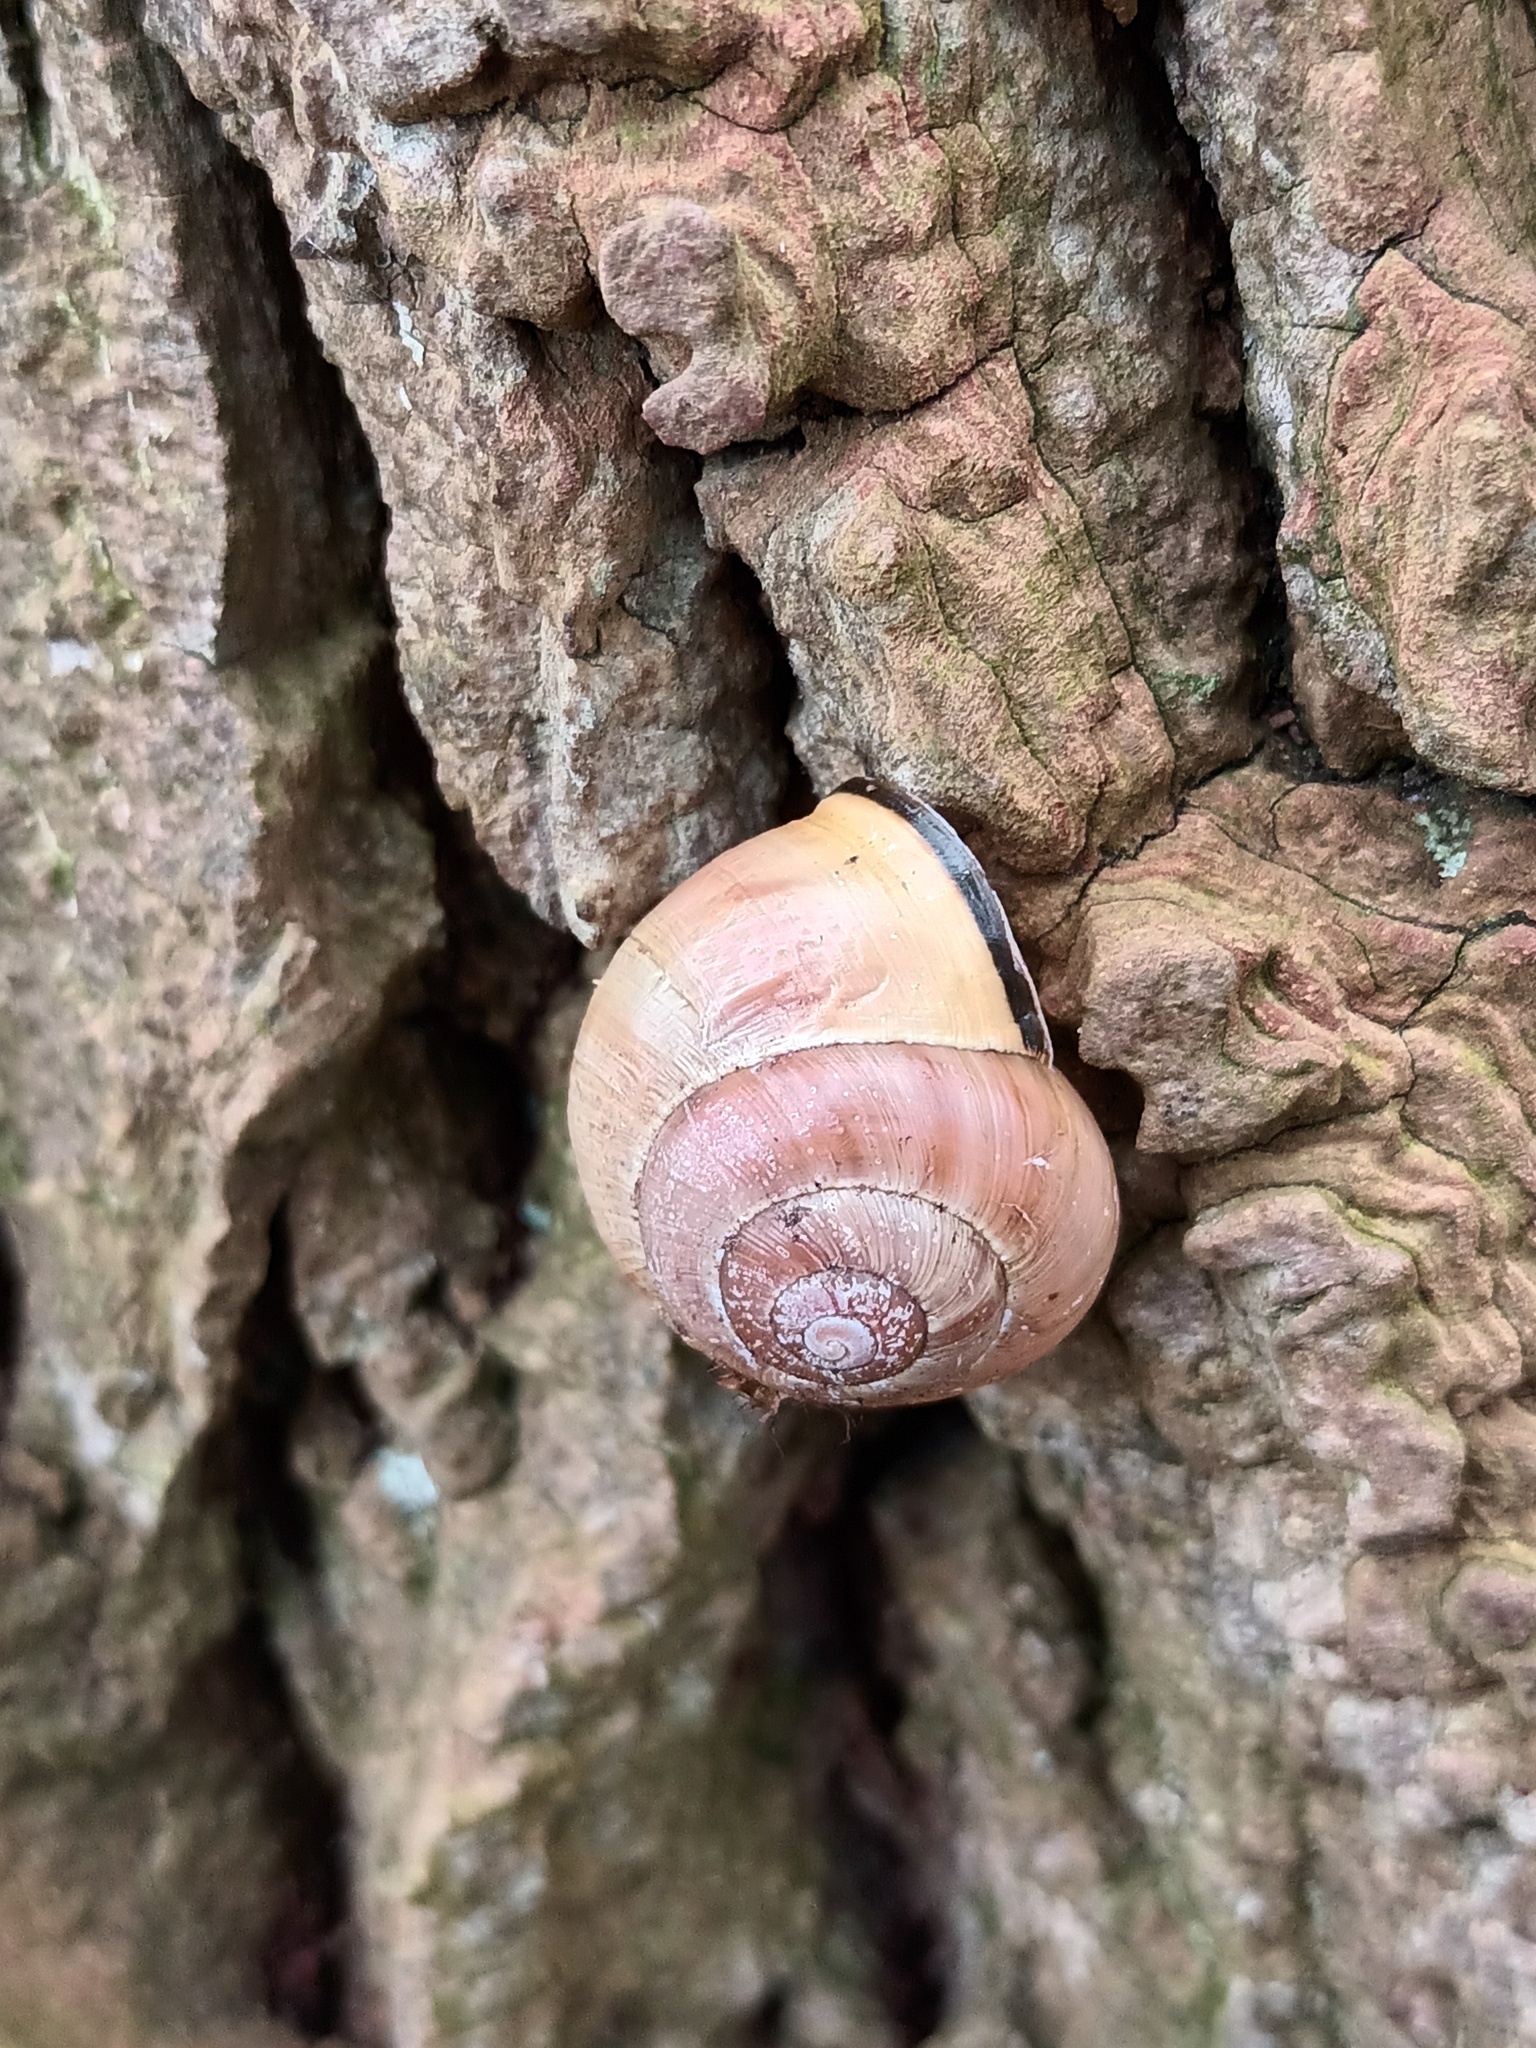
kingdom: Animalia
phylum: Mollusca
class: Gastropoda
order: Stylommatophora
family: Helicidae
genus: Cepaea
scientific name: Cepaea nemoralis
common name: Grovesnail
